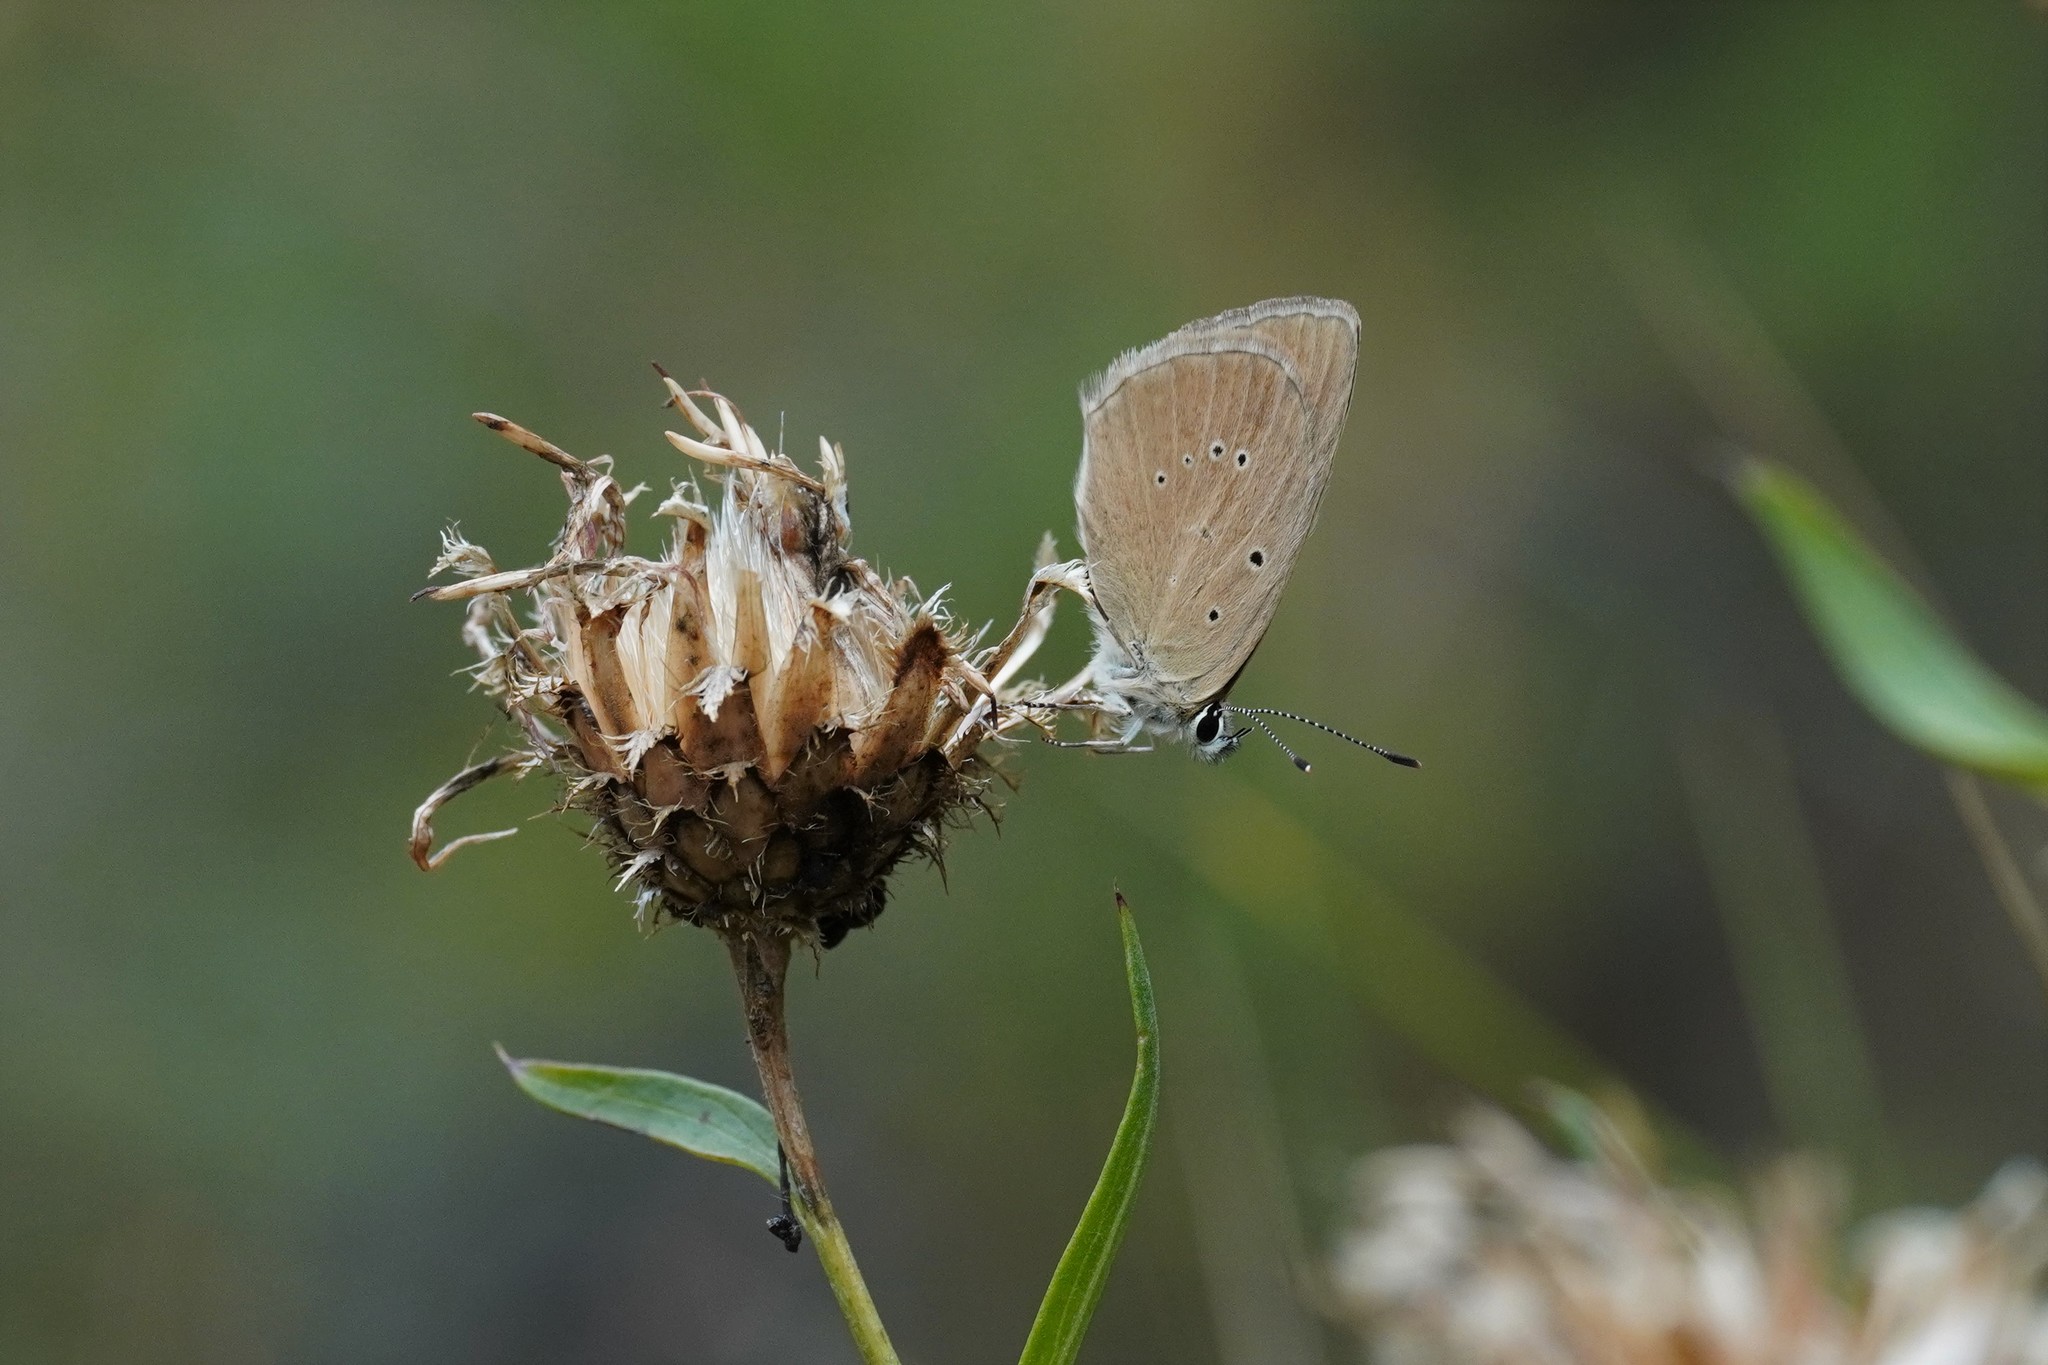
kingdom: Animalia
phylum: Arthropoda
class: Insecta
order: Lepidoptera
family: Lycaenidae
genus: Agrodiaetus
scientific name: Agrodiaetus humedasae
